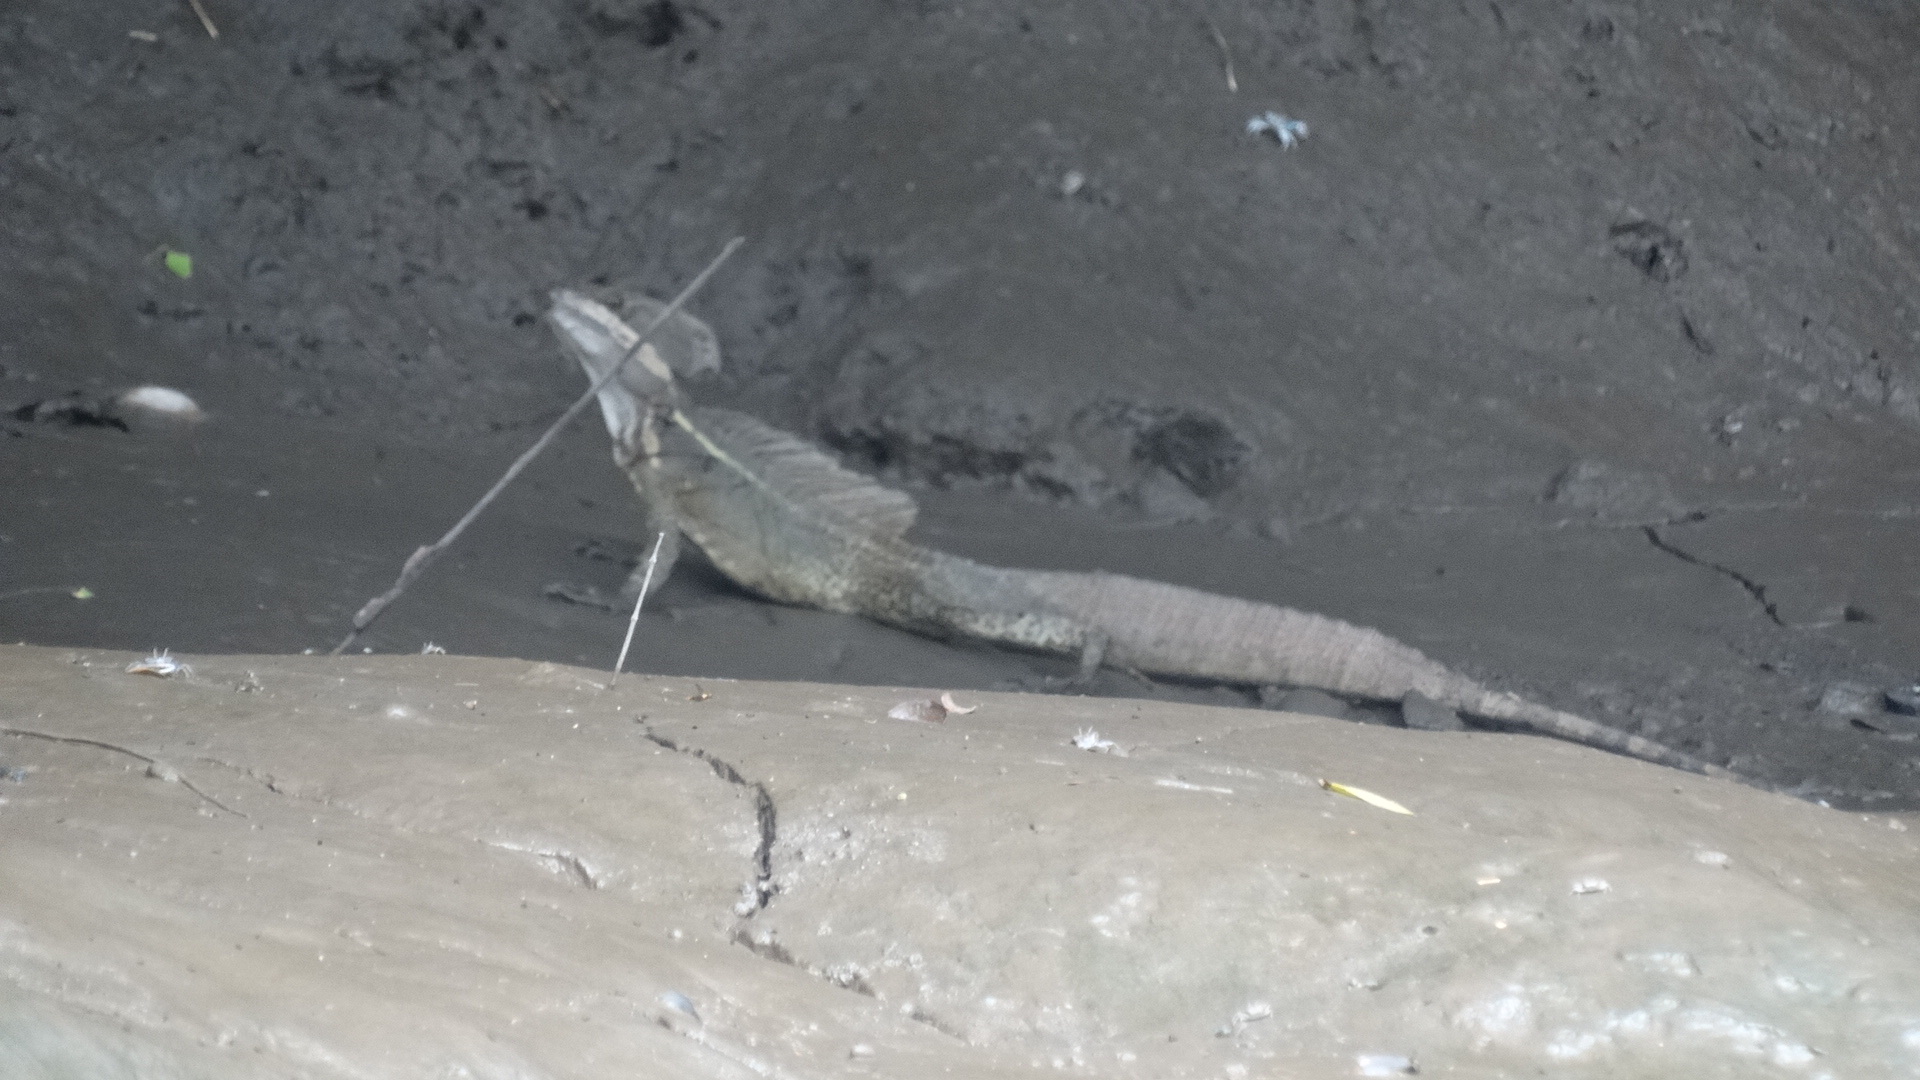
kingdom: Animalia
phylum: Chordata
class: Squamata
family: Corytophanidae
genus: Basiliscus
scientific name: Basiliscus basiliscus
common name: Common basilisk
